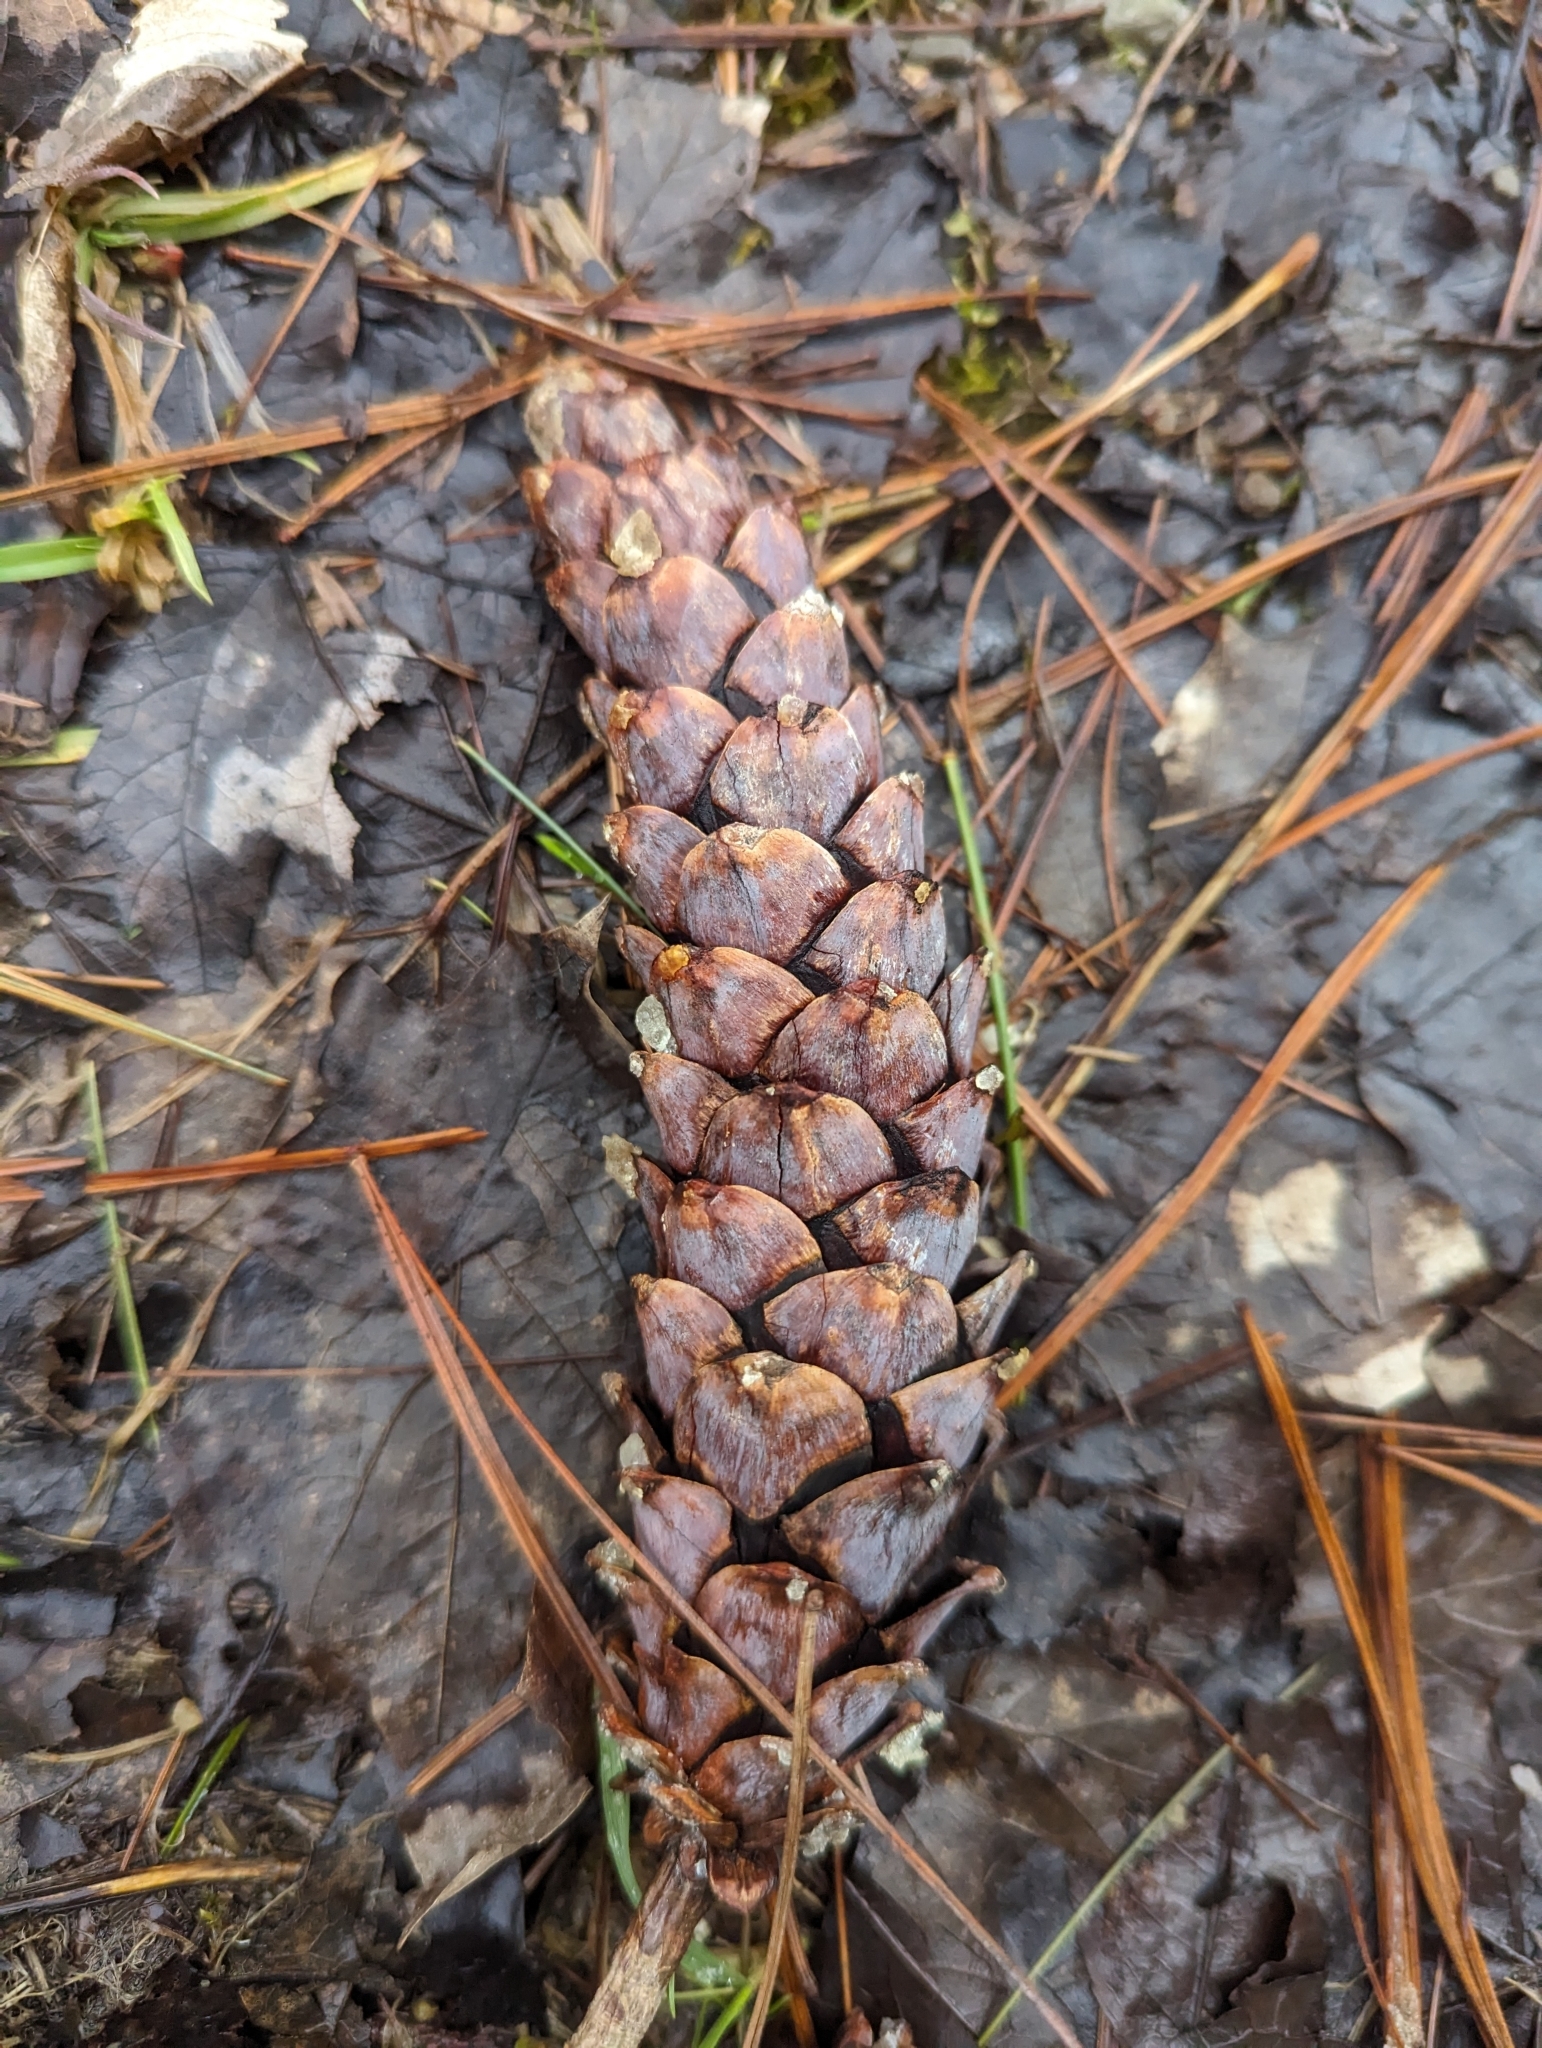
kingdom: Plantae
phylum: Tracheophyta
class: Pinopsida
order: Pinales
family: Pinaceae
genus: Pinus
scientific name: Pinus strobus
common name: Weymouth pine
